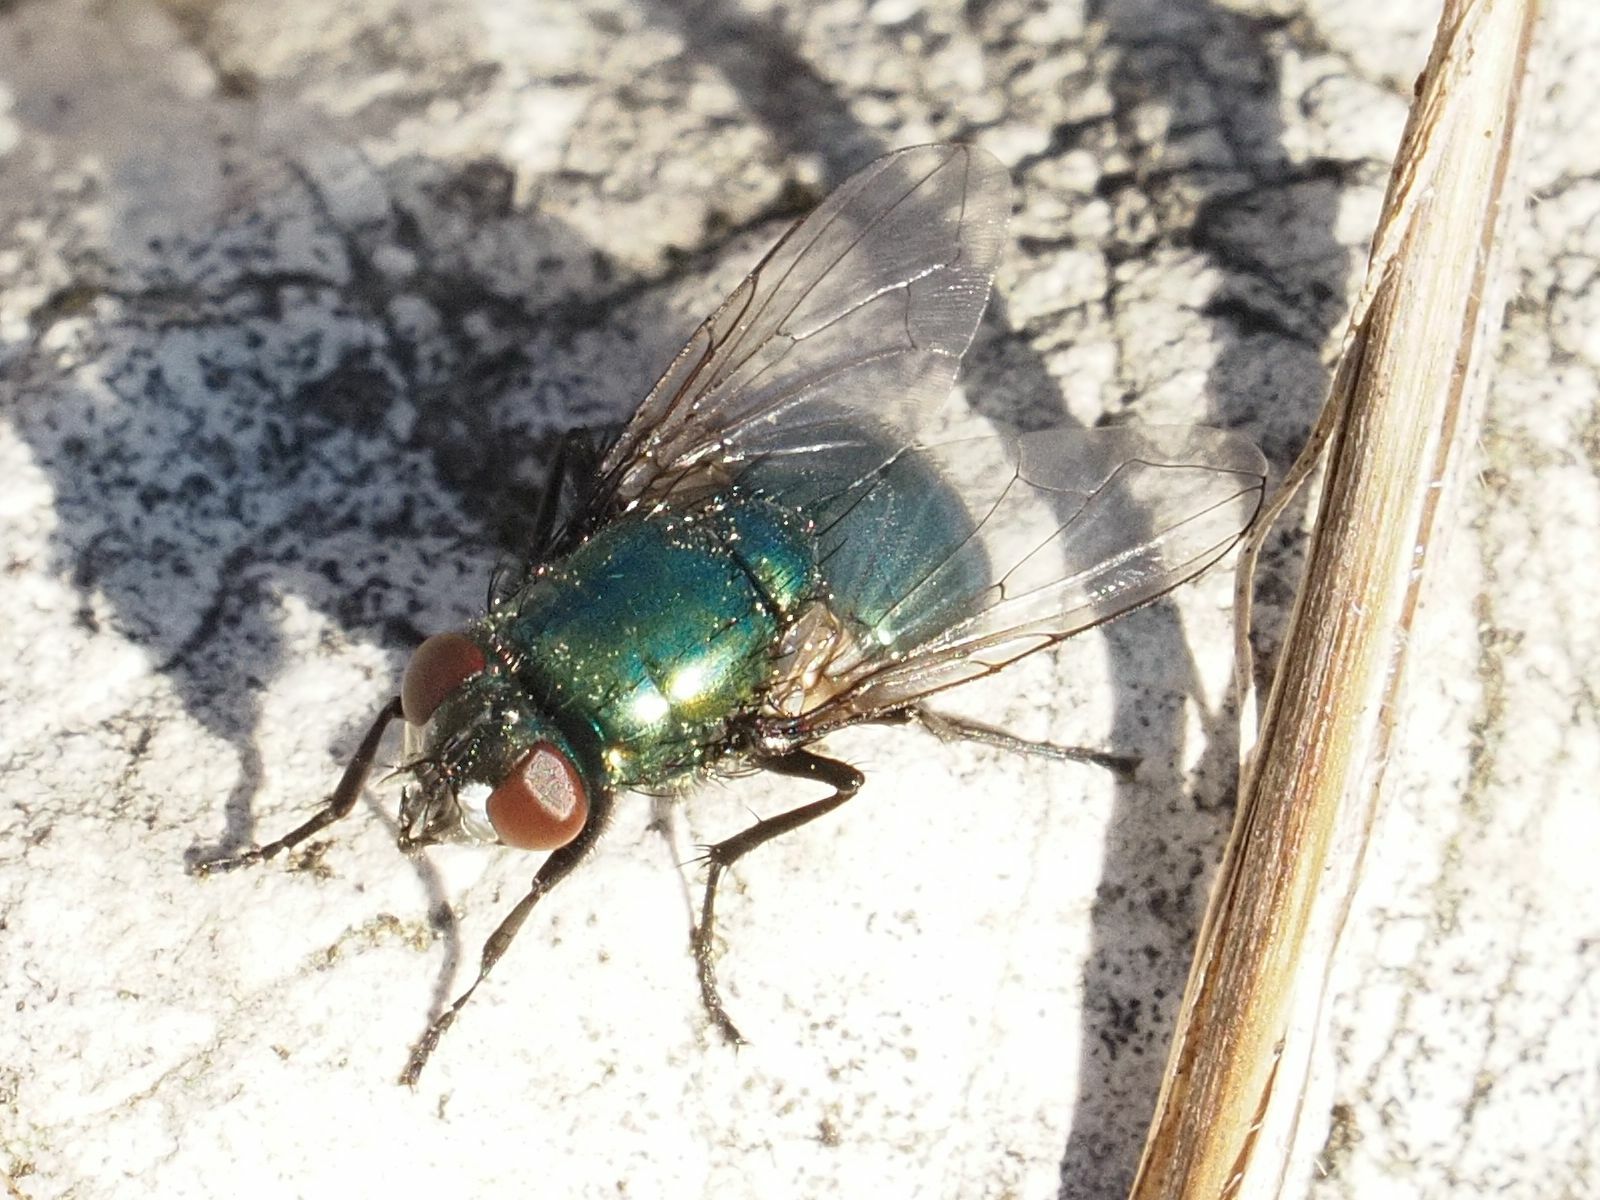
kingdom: Animalia
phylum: Arthropoda
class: Insecta
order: Diptera
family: Muscidae
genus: Neomyia
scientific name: Neomyia viridescens
